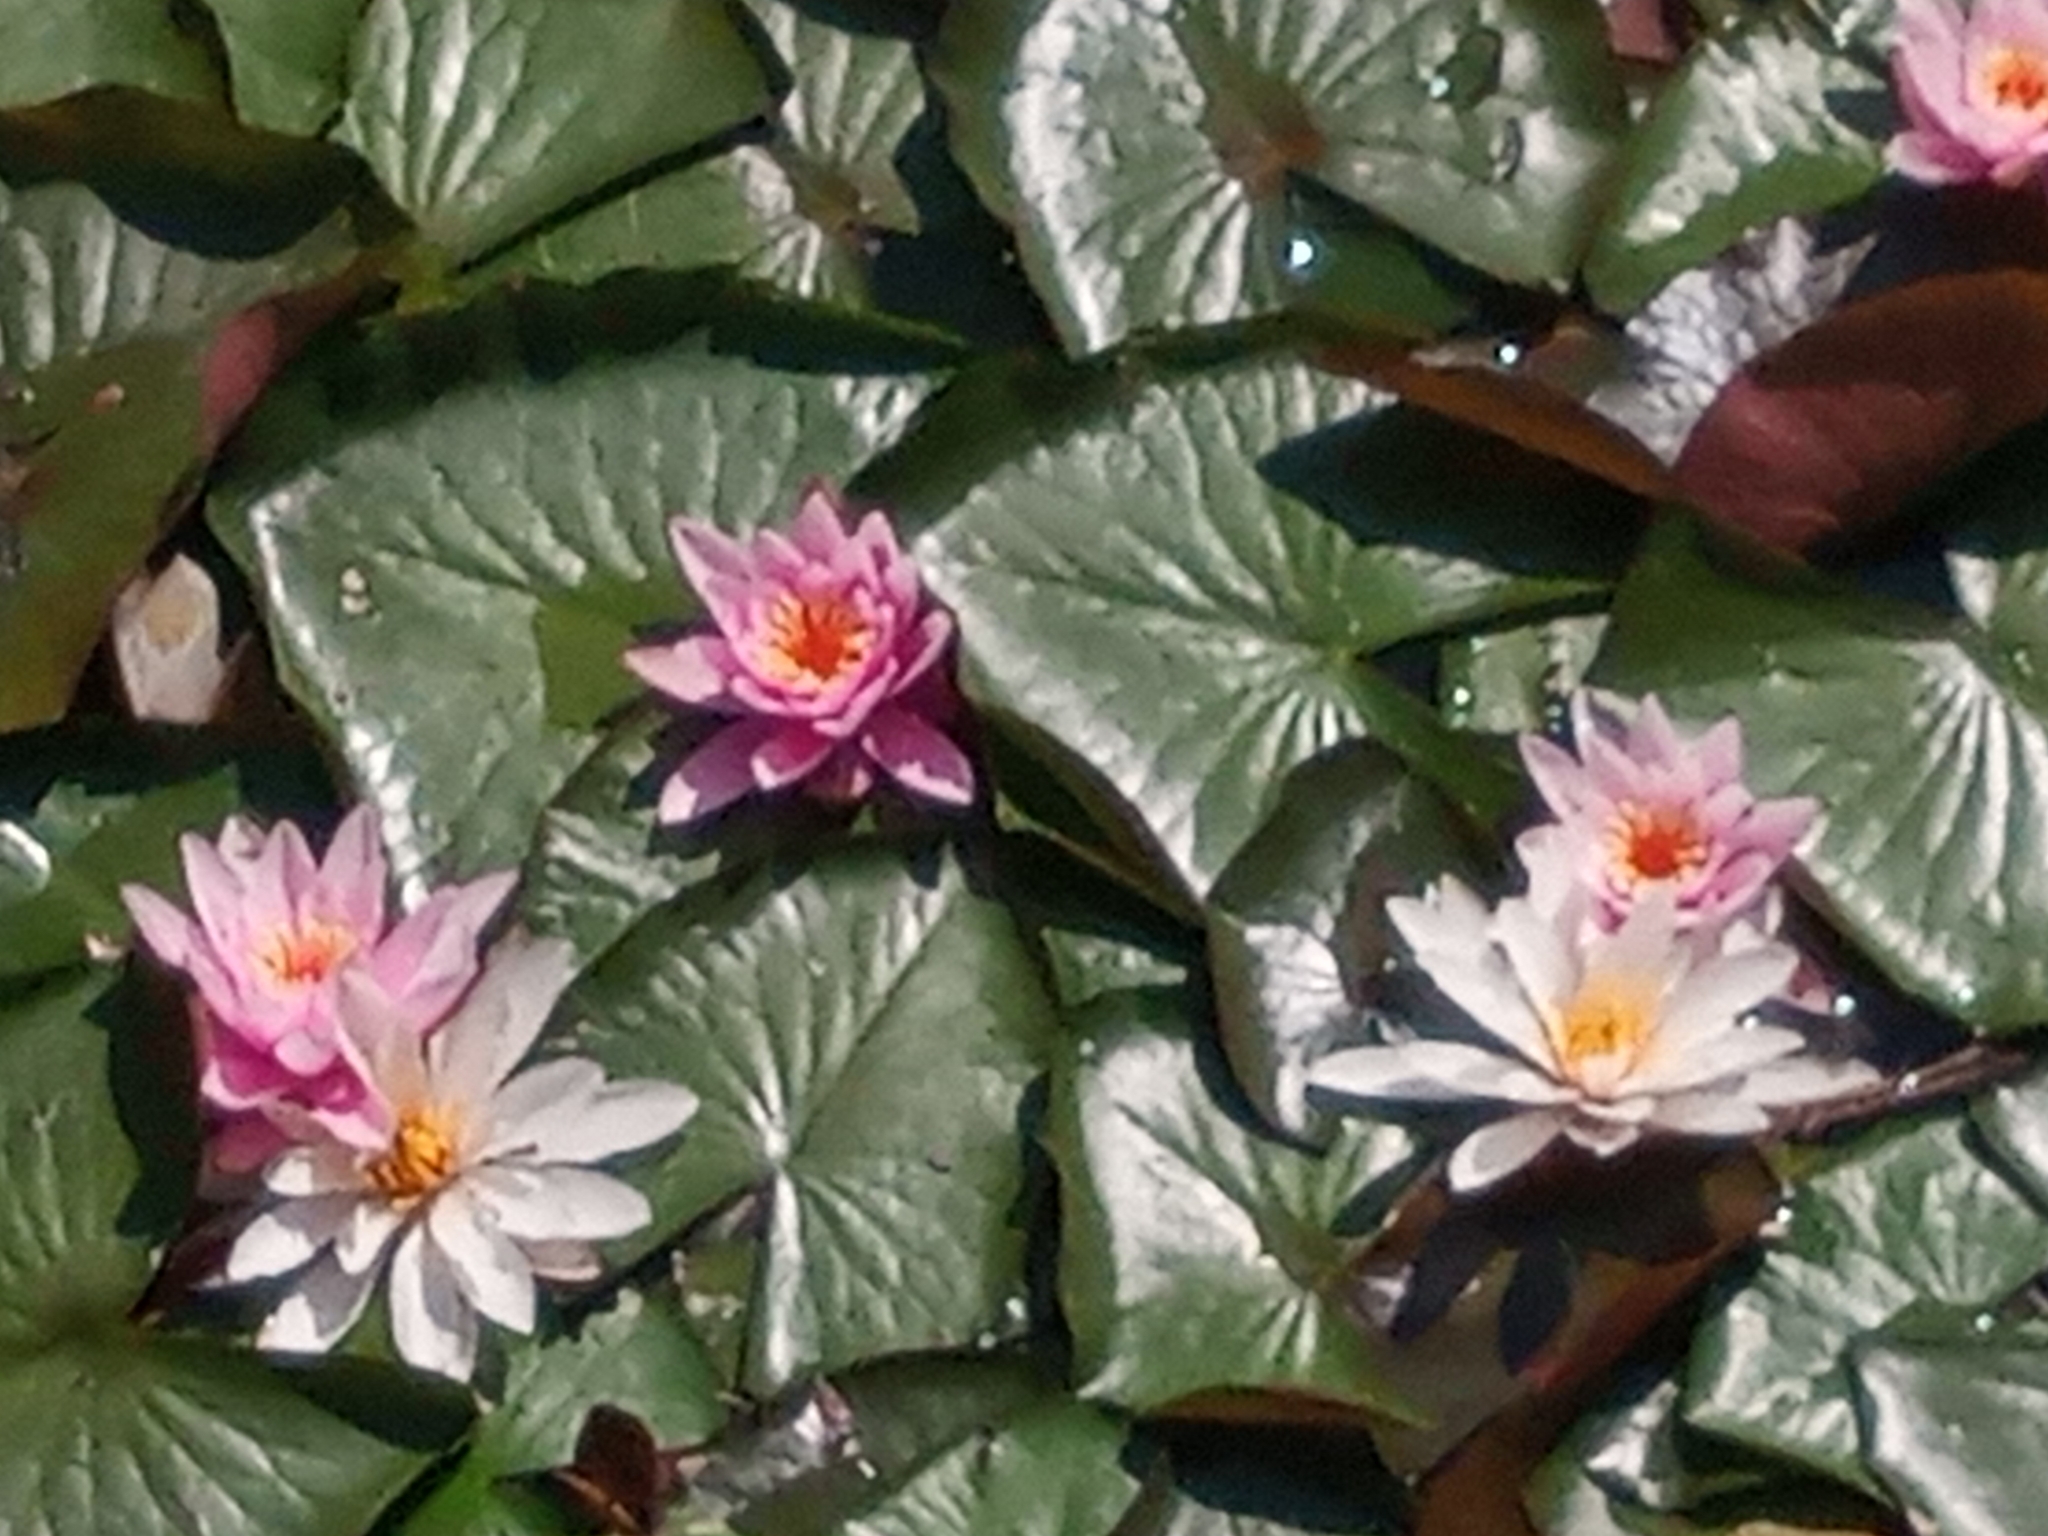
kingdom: Plantae
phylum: Tracheophyta
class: Magnoliopsida
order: Nymphaeales
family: Nymphaeaceae
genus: Nymphaea
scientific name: Nymphaea marliacea
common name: Water-lily
